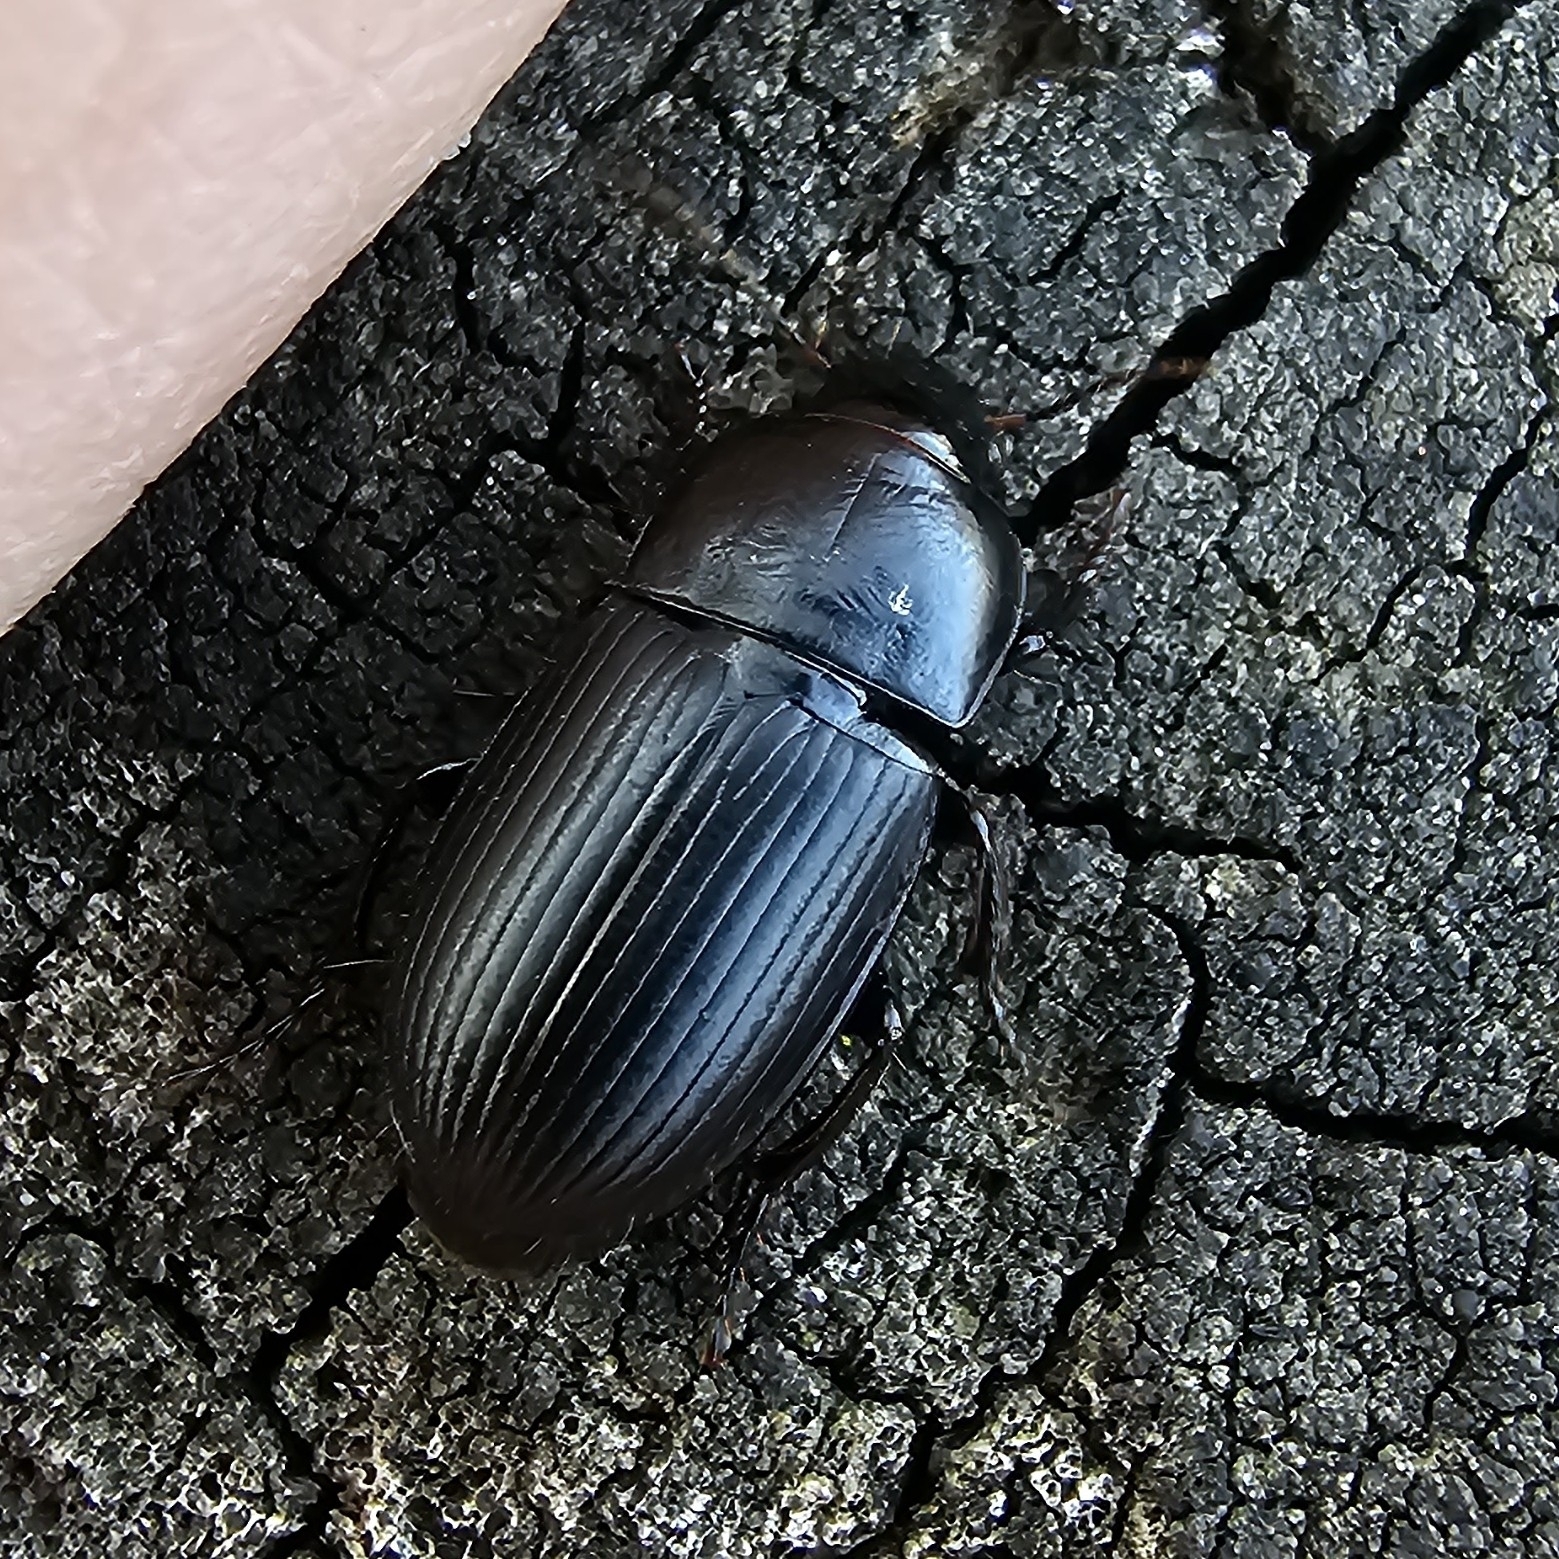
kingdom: Animalia
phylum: Arthropoda
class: Insecta
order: Coleoptera
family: Carabidae
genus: Zabrus
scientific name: Zabrus tenebrioides
